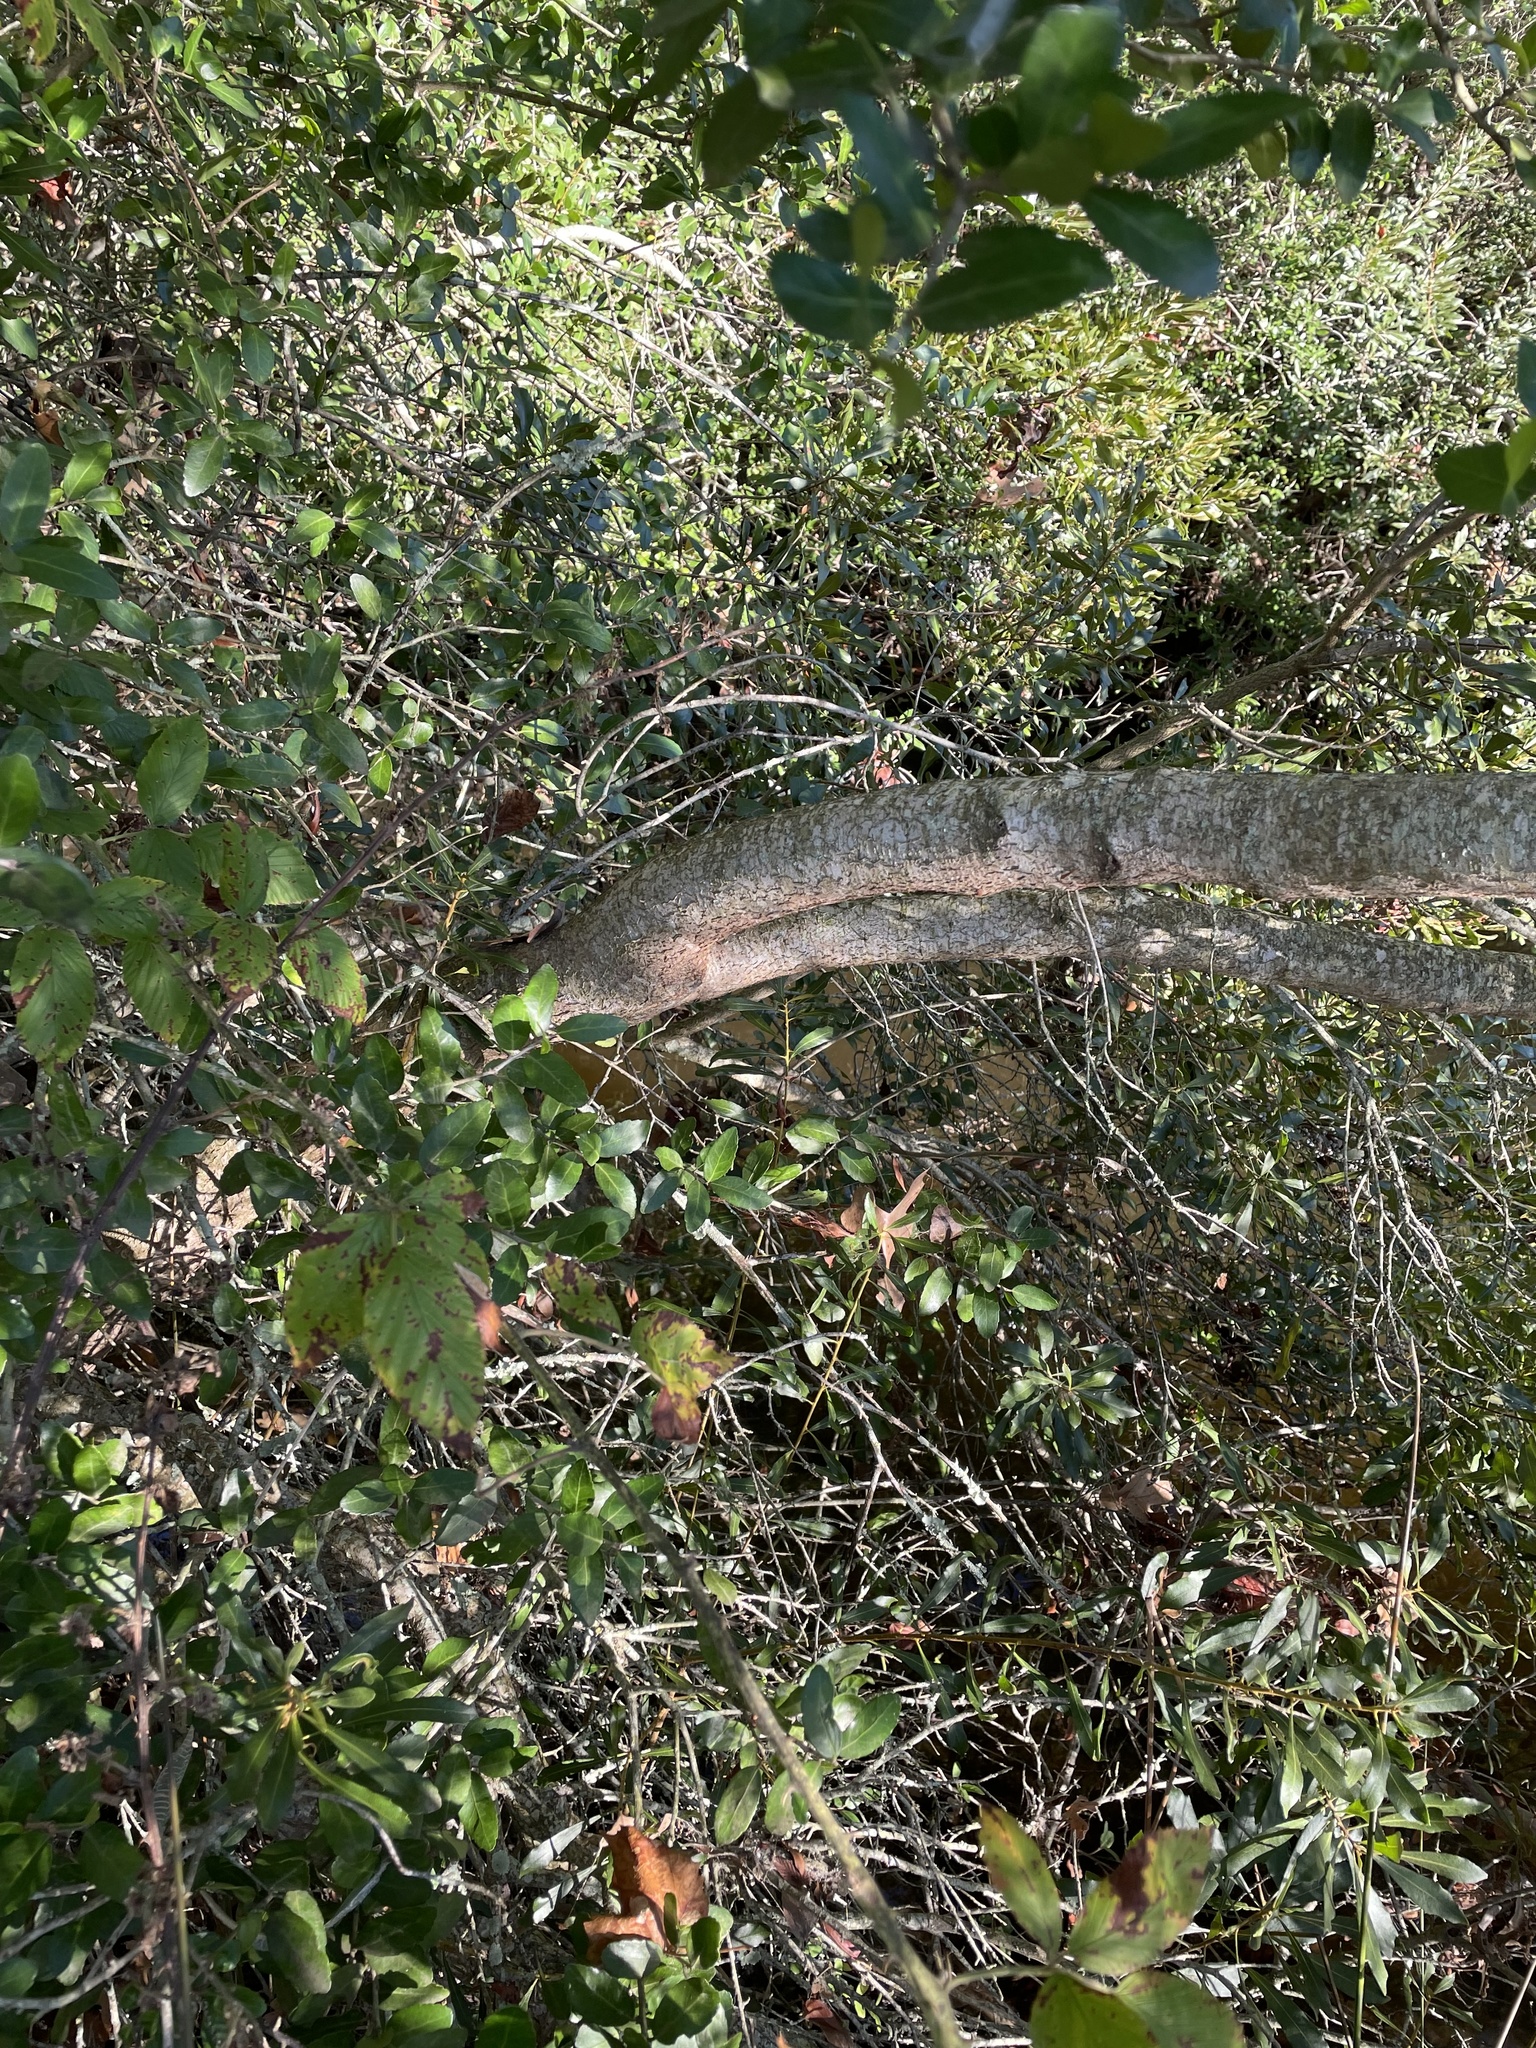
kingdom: Plantae
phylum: Tracheophyta
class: Magnoliopsida
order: Fagales
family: Myricaceae
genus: Morella
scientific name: Morella cerifera
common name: Wax myrtle
